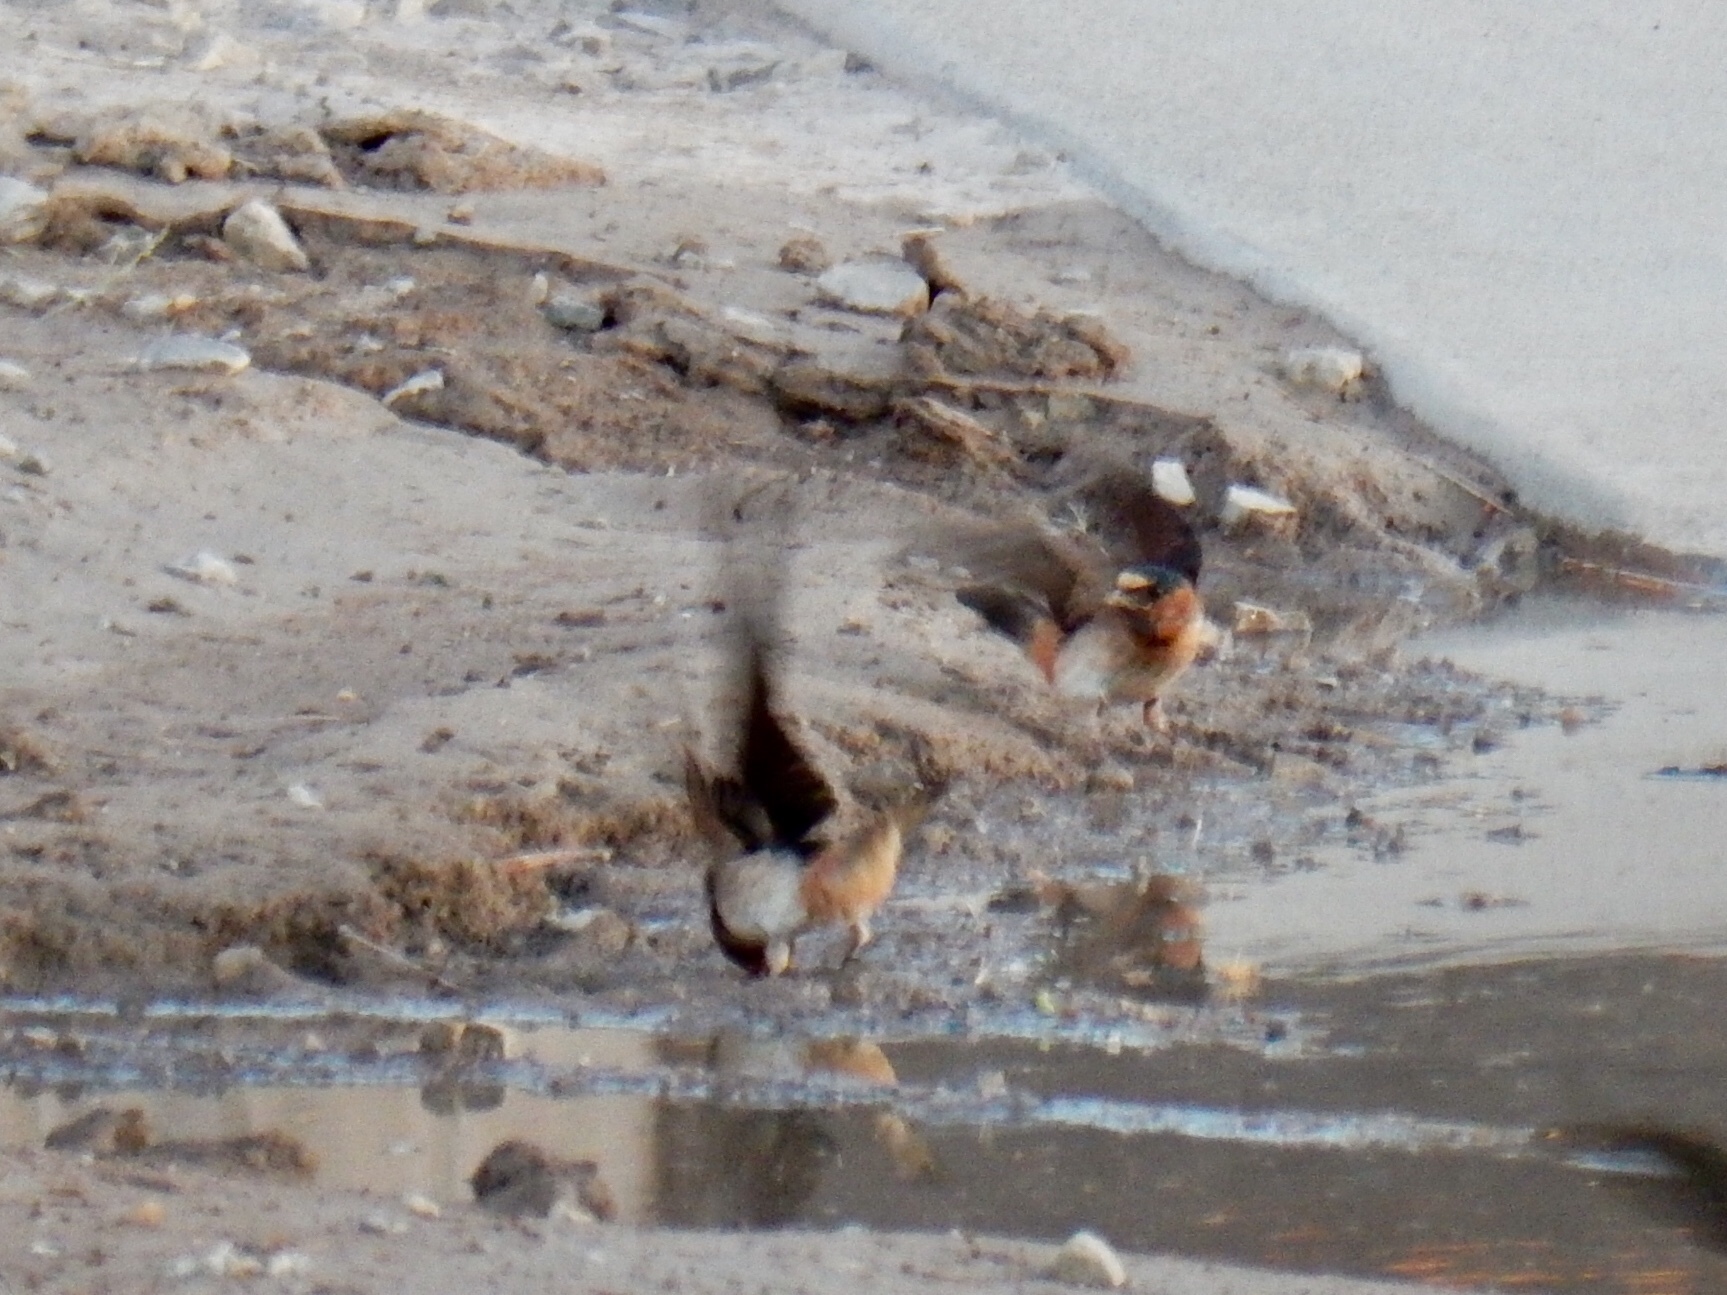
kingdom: Animalia
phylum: Chordata
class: Aves
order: Passeriformes
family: Hirundinidae
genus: Petrochelidon
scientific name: Petrochelidon pyrrhonota
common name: American cliff swallow
